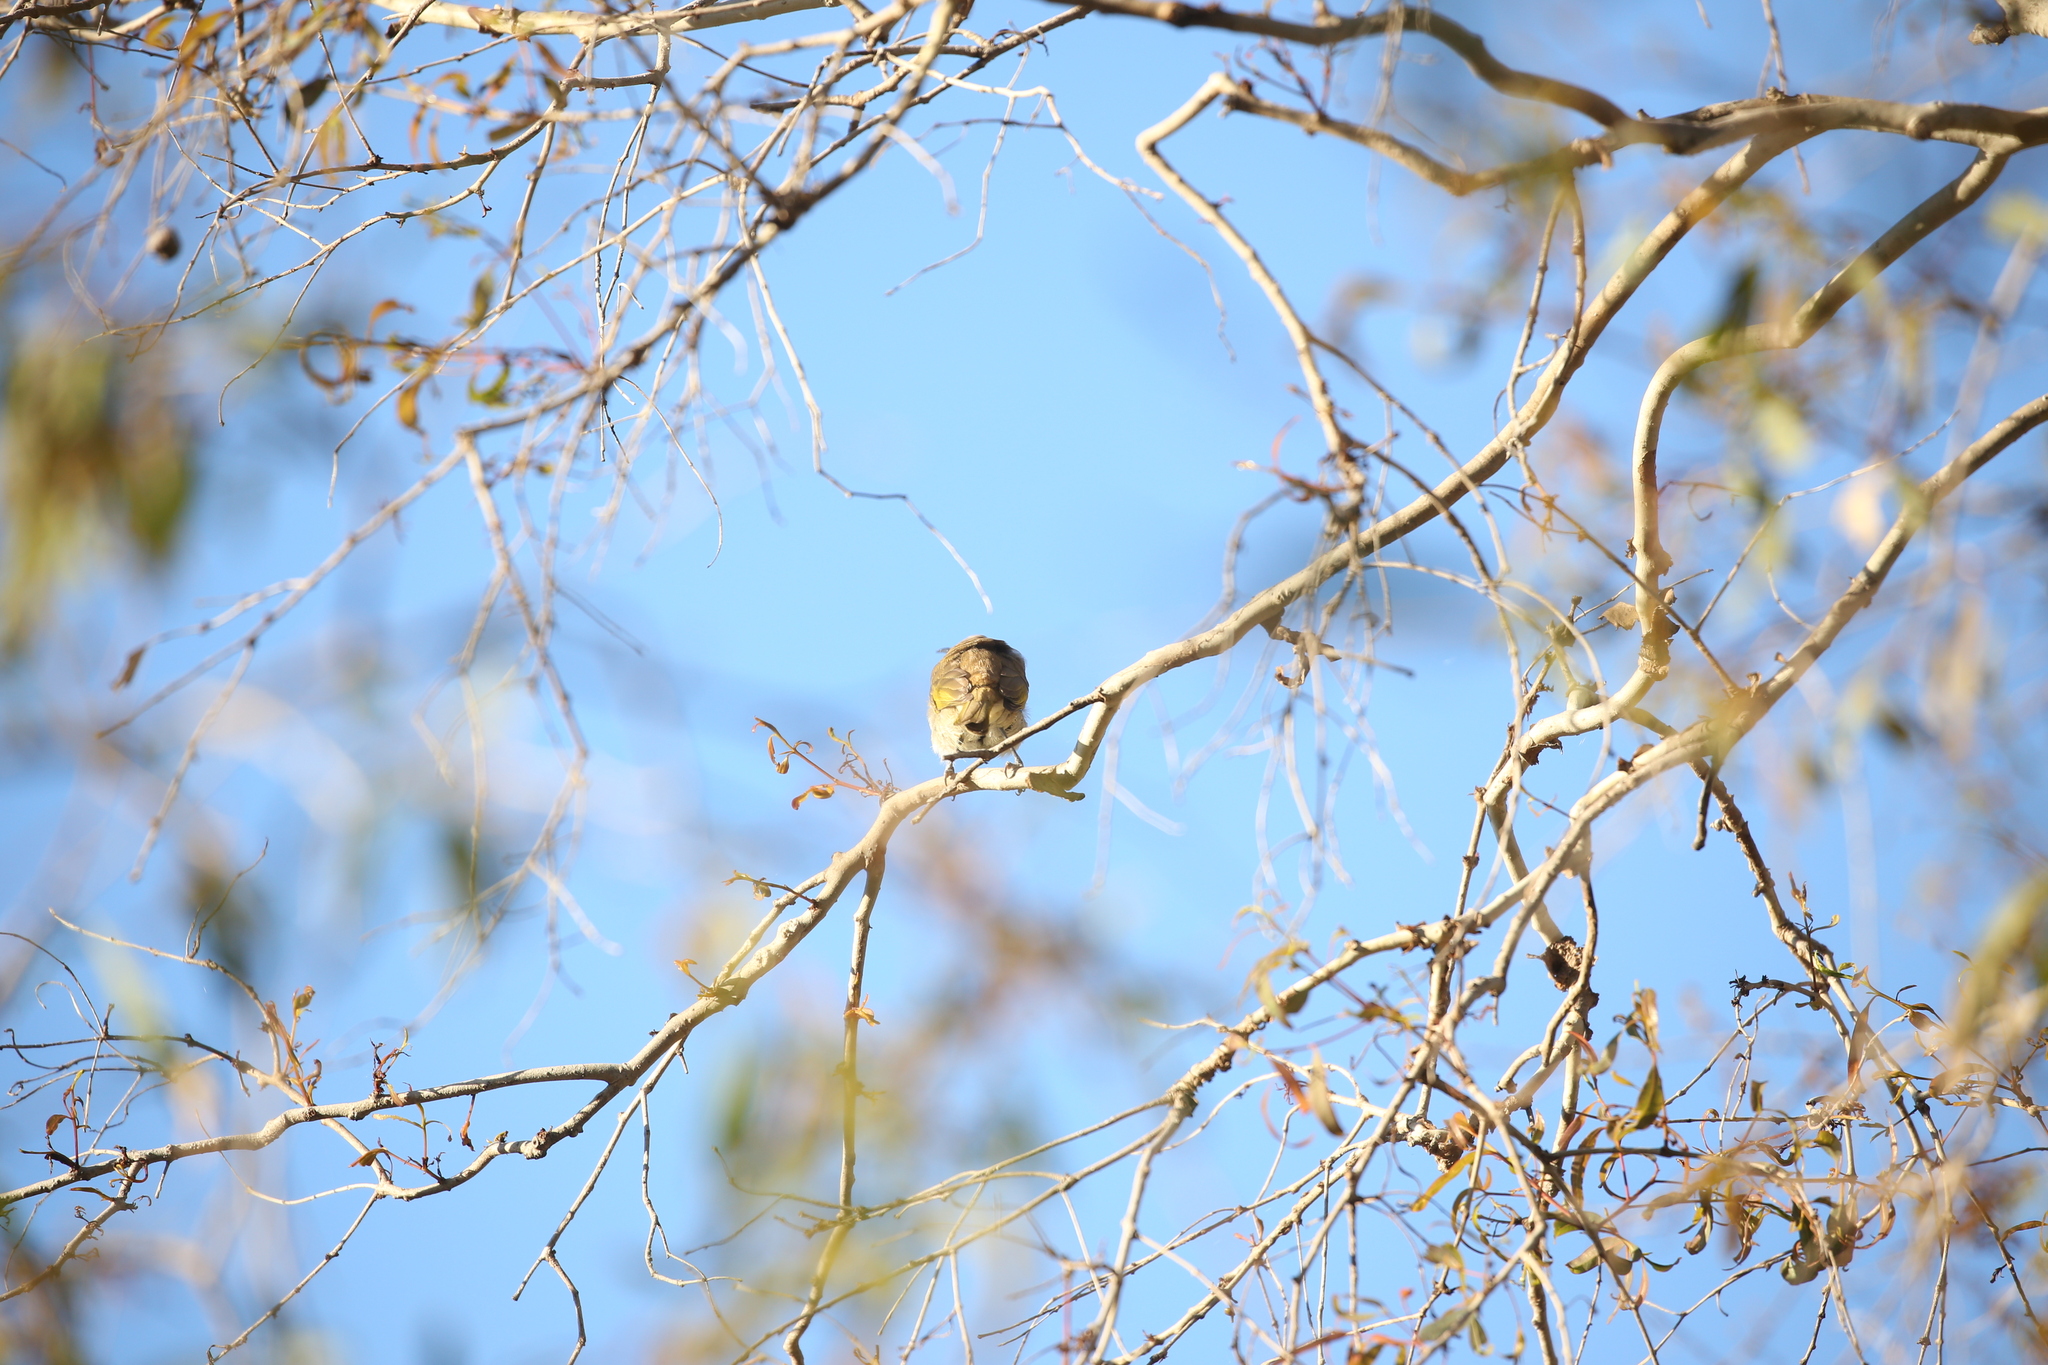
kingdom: Animalia
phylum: Chordata
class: Aves
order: Passeriformes
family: Meliphagidae
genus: Lichmera
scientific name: Lichmera indistincta
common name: Brown honeyeater
